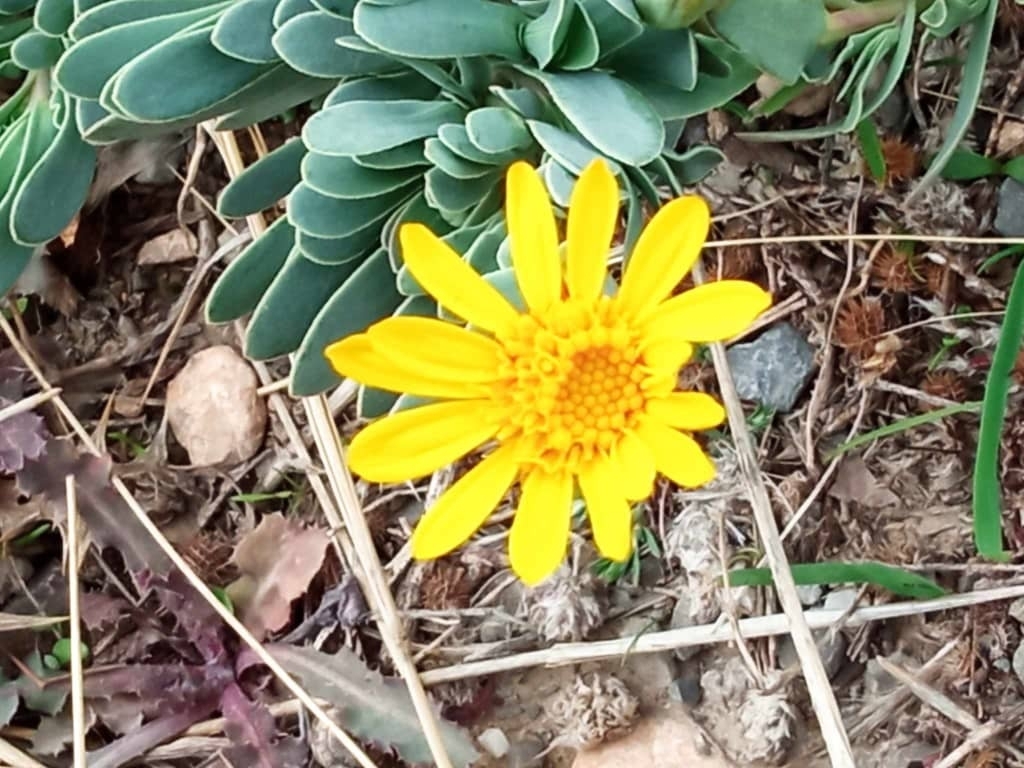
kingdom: Plantae
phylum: Tracheophyta
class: Magnoliopsida
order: Asterales
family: Asteraceae
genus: Hertia
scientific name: Hertia cheirifolia
